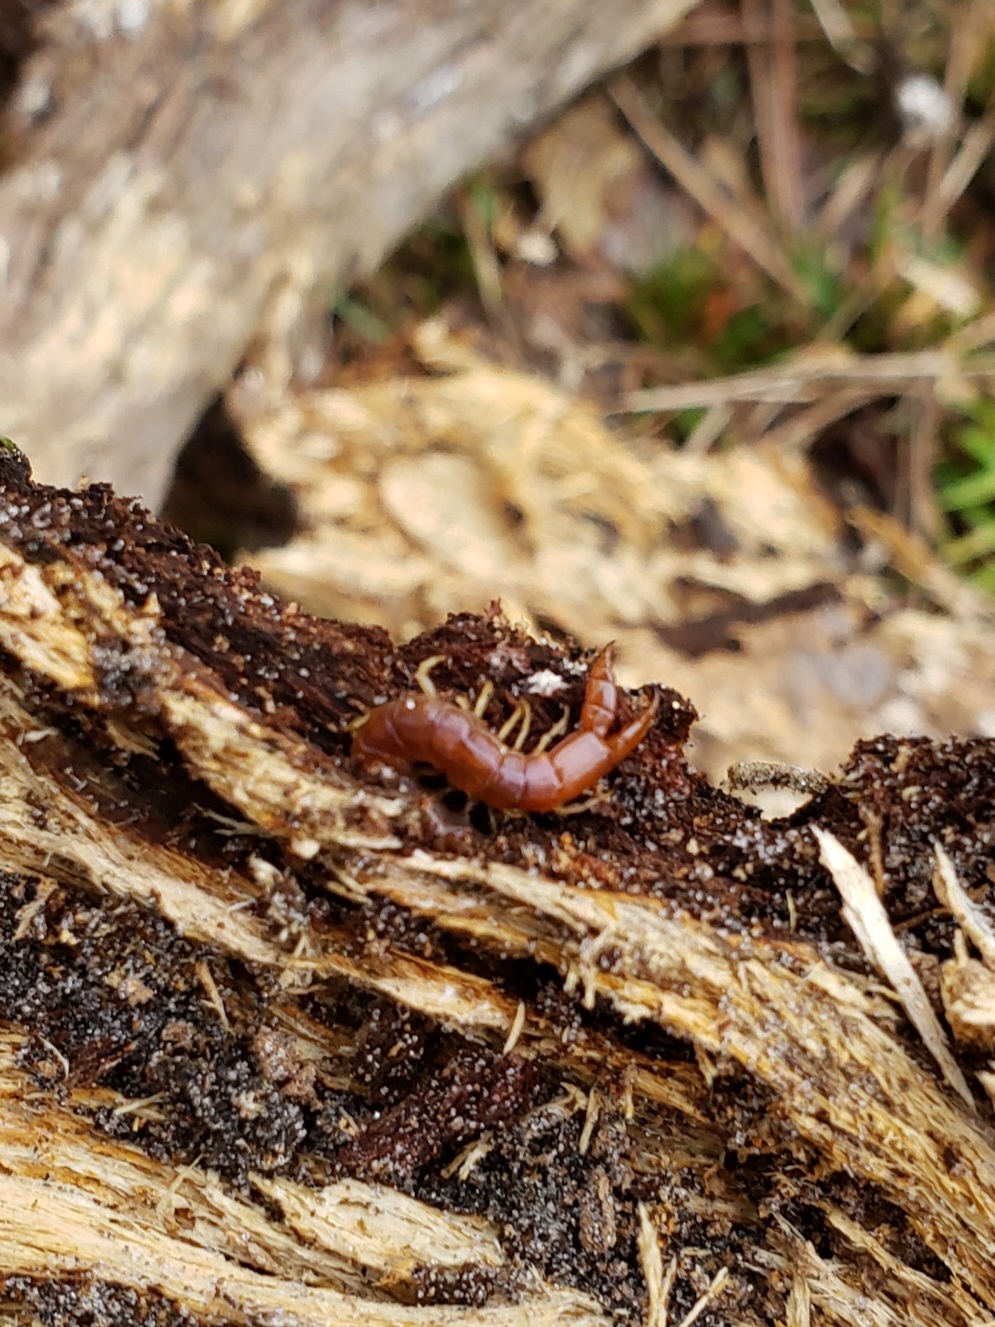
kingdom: Animalia
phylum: Arthropoda
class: Chilopoda
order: Scolopendromorpha
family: Cryptopidae
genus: Theatops
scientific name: Theatops posticus
